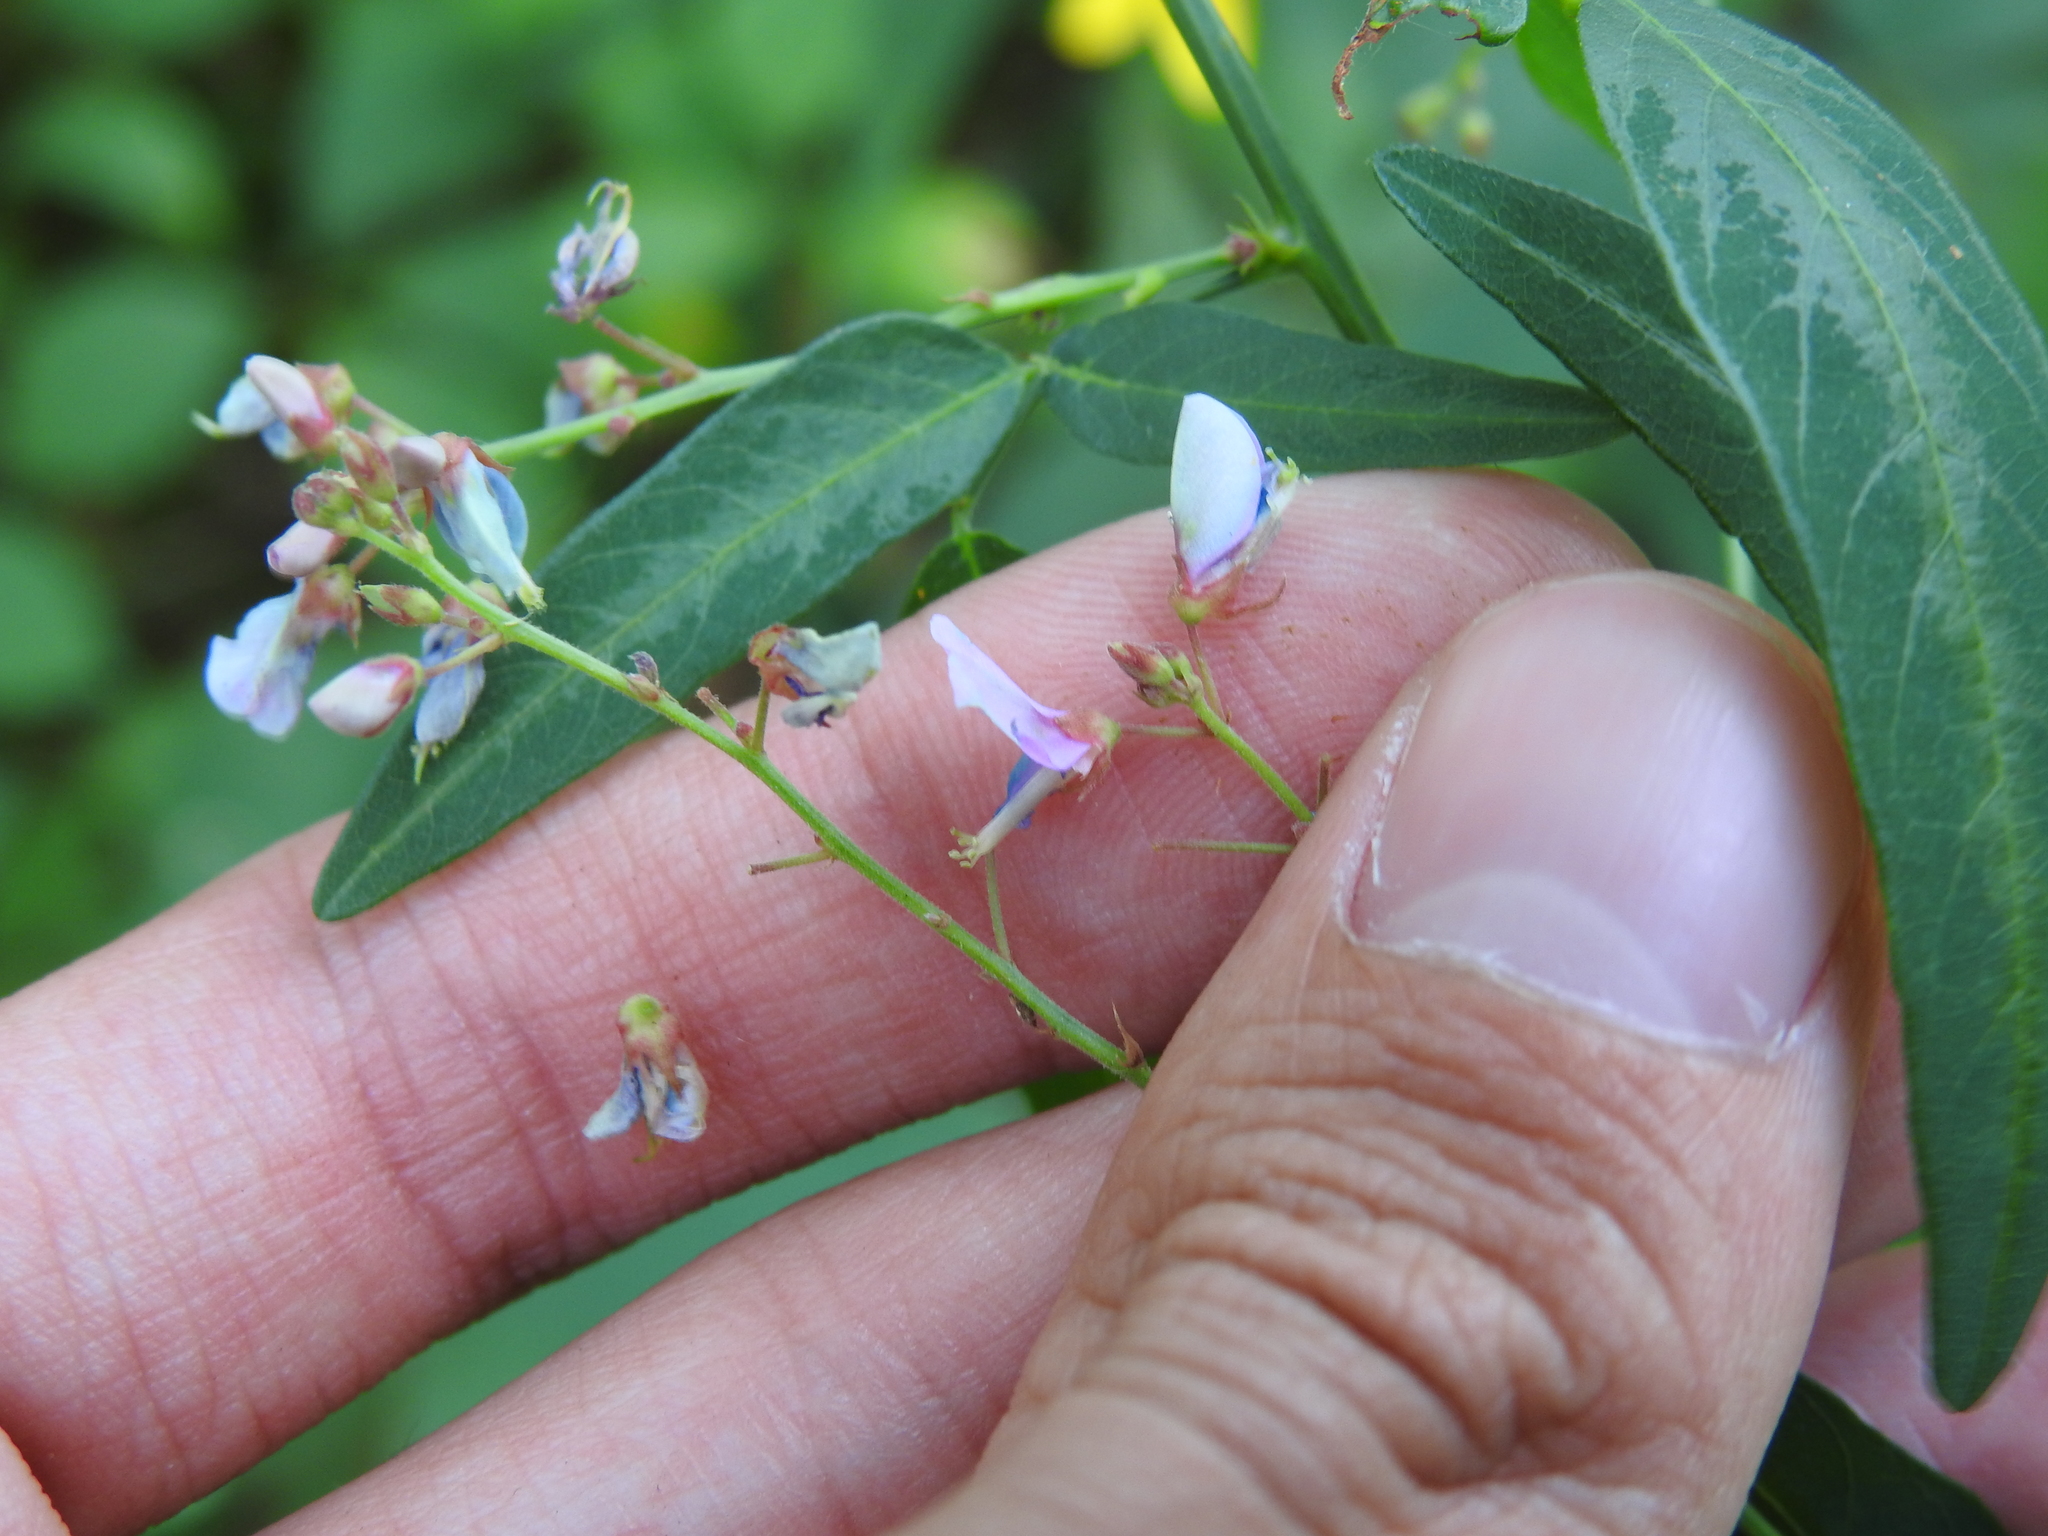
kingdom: Plantae
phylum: Tracheophyta
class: Magnoliopsida
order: Fabales
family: Fabaceae
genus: Desmodium
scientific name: Desmodium paniculatum
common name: Panicled tick-clover
